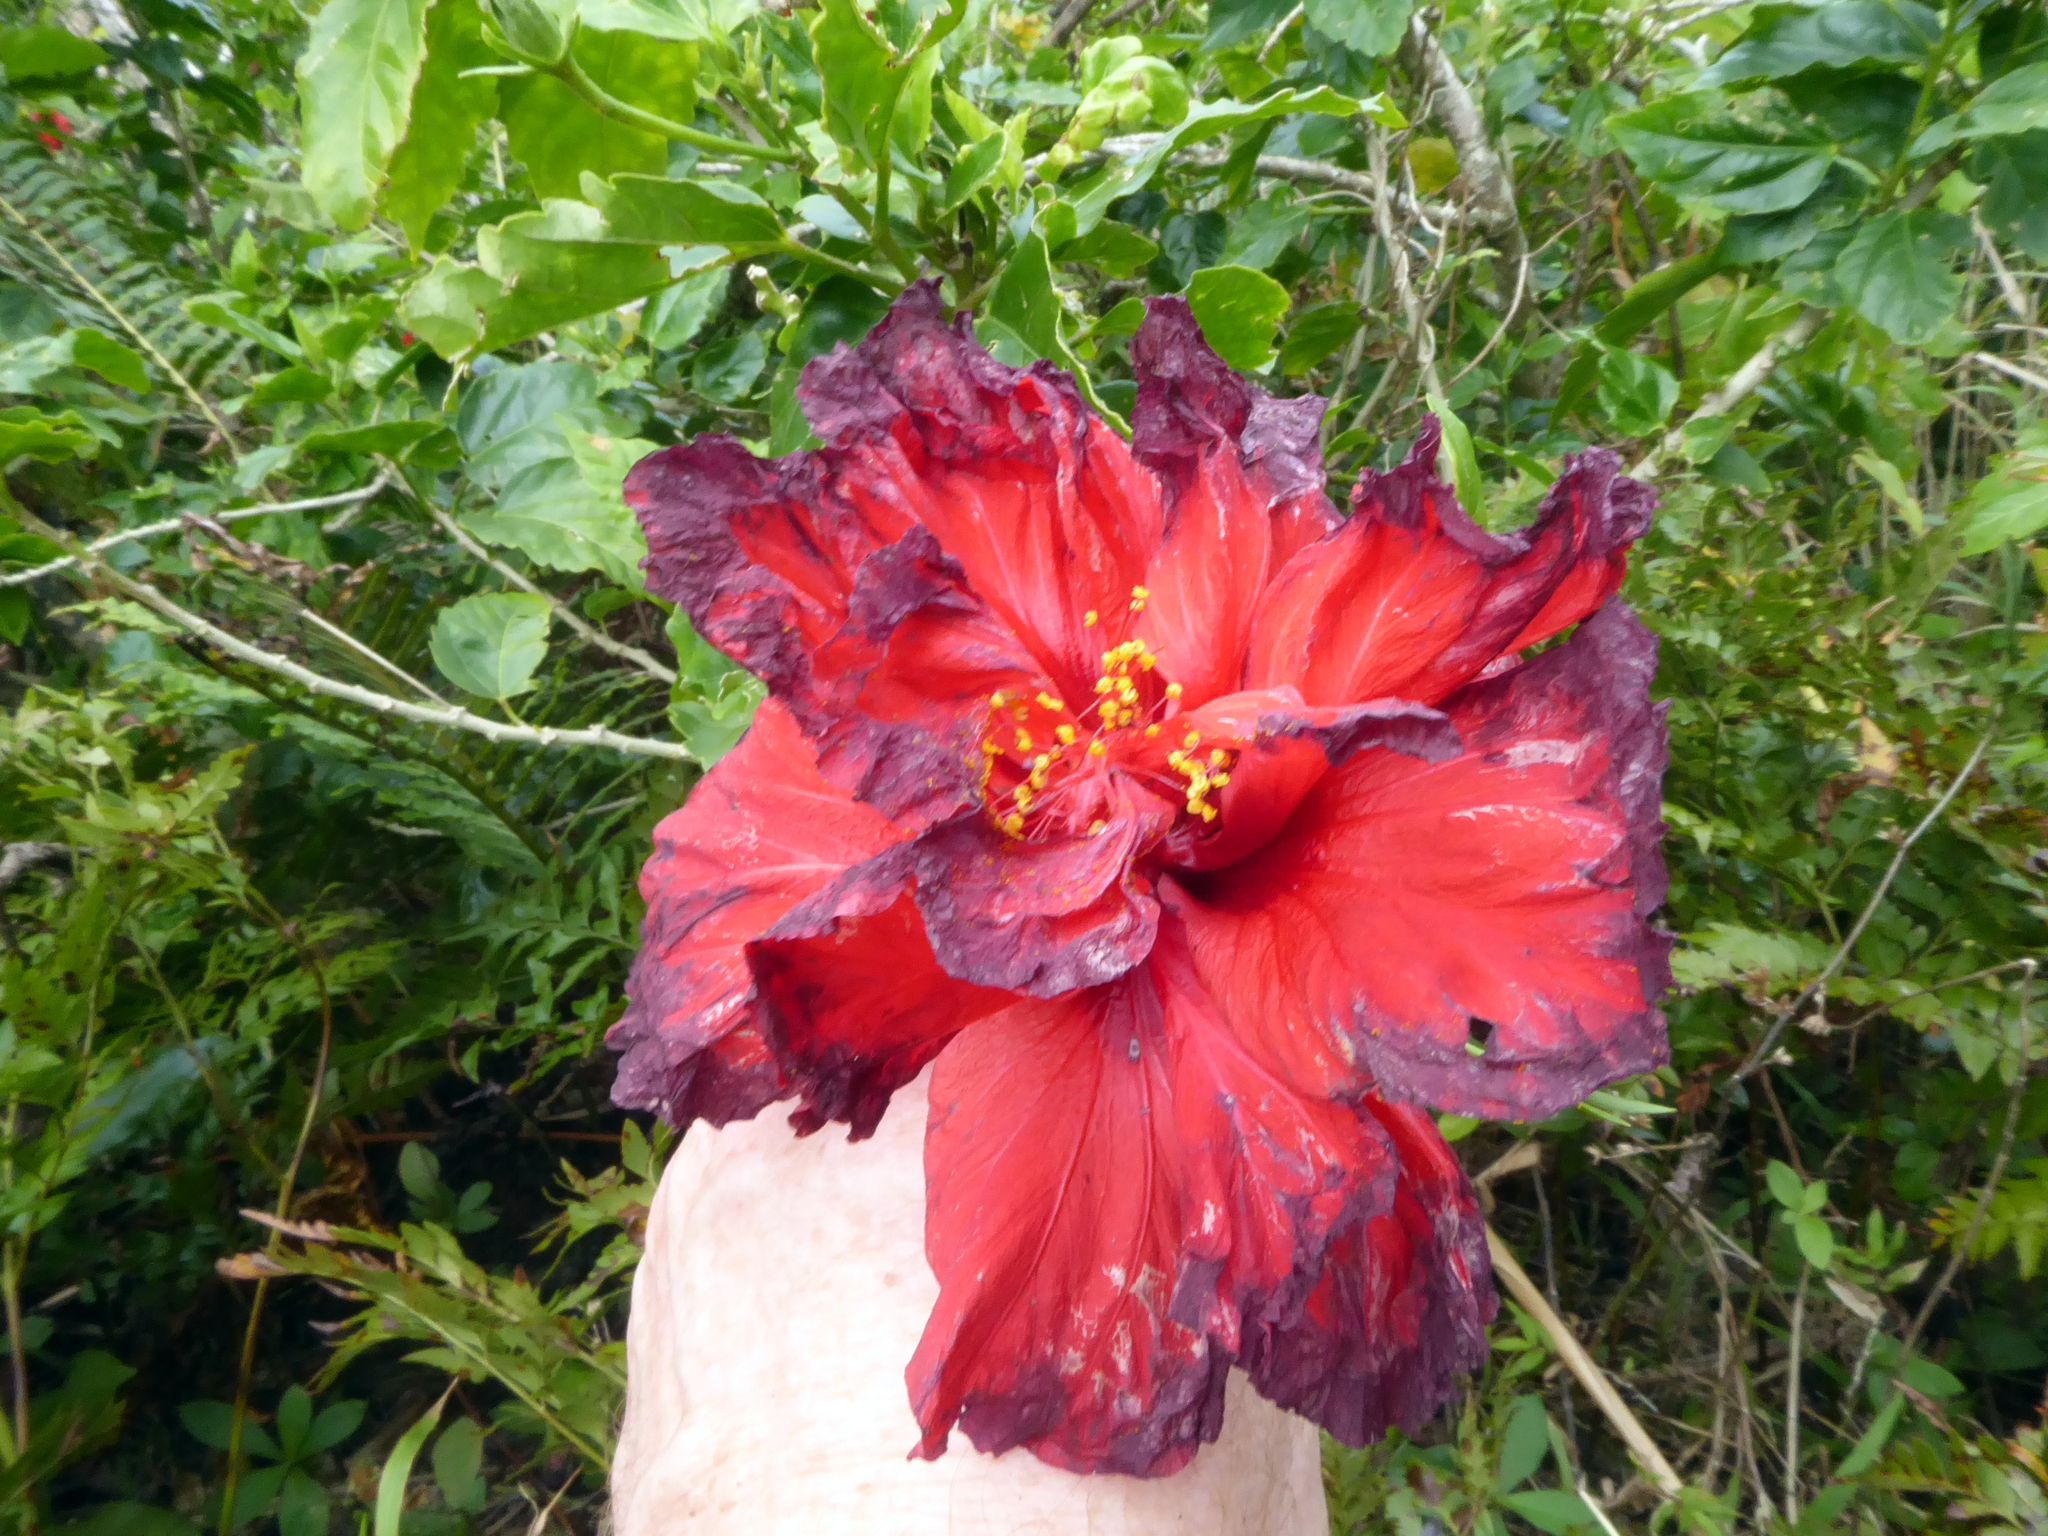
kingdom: Plantae
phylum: Tracheophyta
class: Magnoliopsida
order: Malvales
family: Malvaceae
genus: Hibiscus
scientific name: Hibiscus rosa-sinensis
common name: Hibiscus
